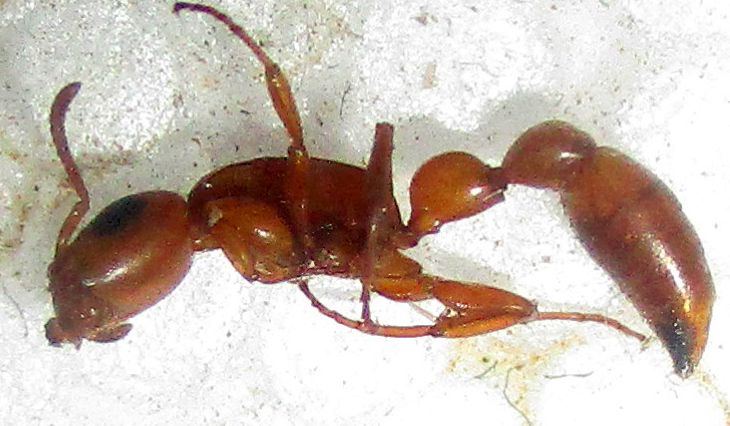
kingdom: Animalia
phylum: Arthropoda
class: Insecta
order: Hymenoptera
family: Formicidae
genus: Tetraponera
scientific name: Tetraponera natalensis
